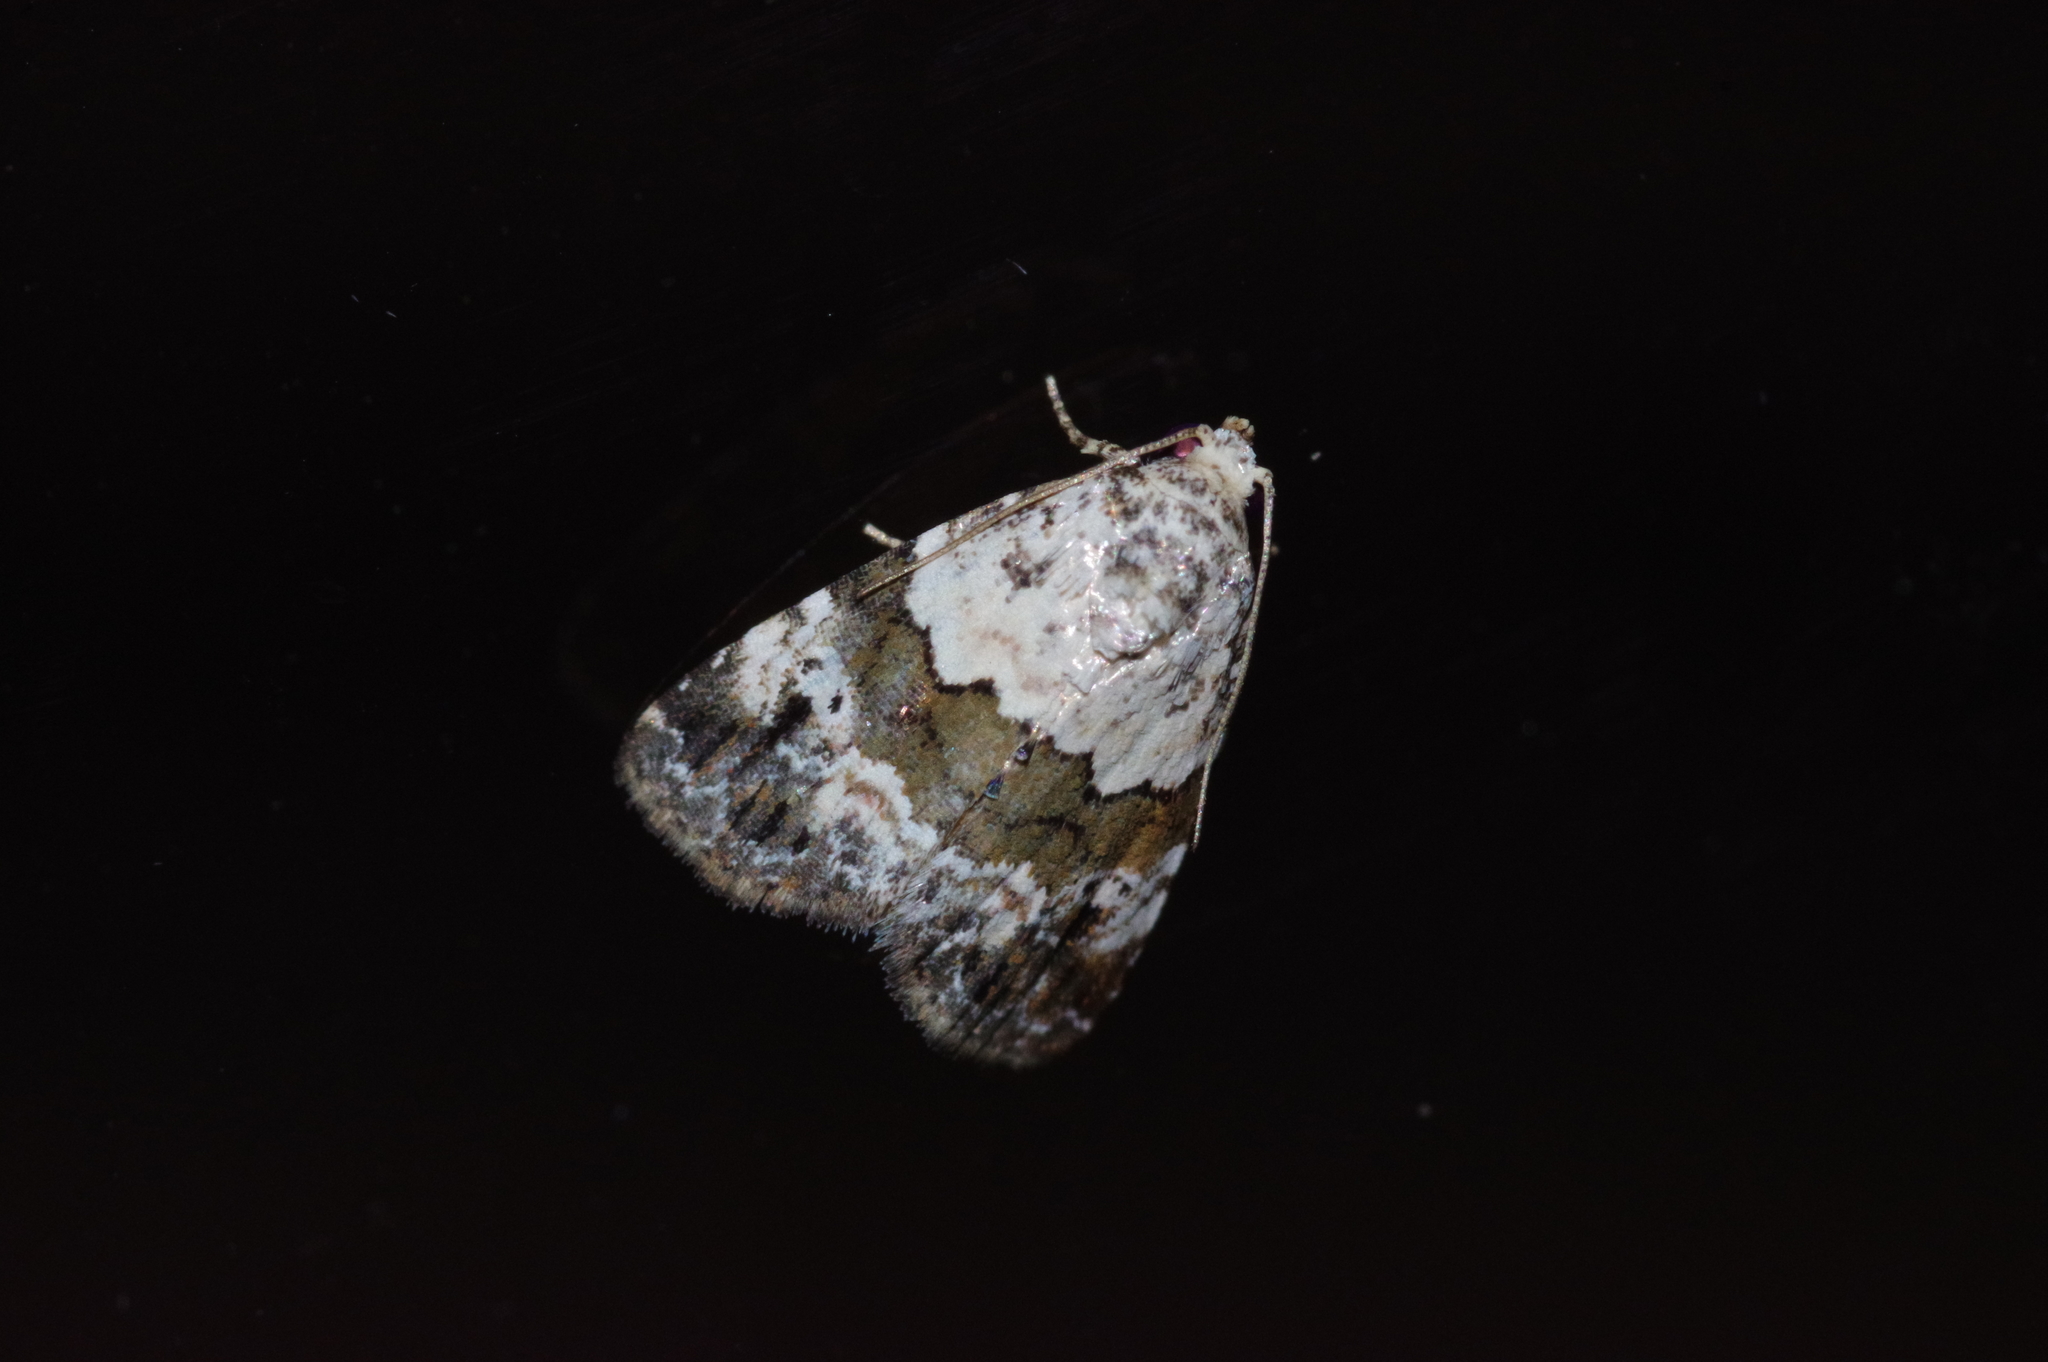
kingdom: Animalia
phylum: Arthropoda
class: Insecta
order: Lepidoptera
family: Noctuidae
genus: Maliattha
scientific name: Maliattha signifera
